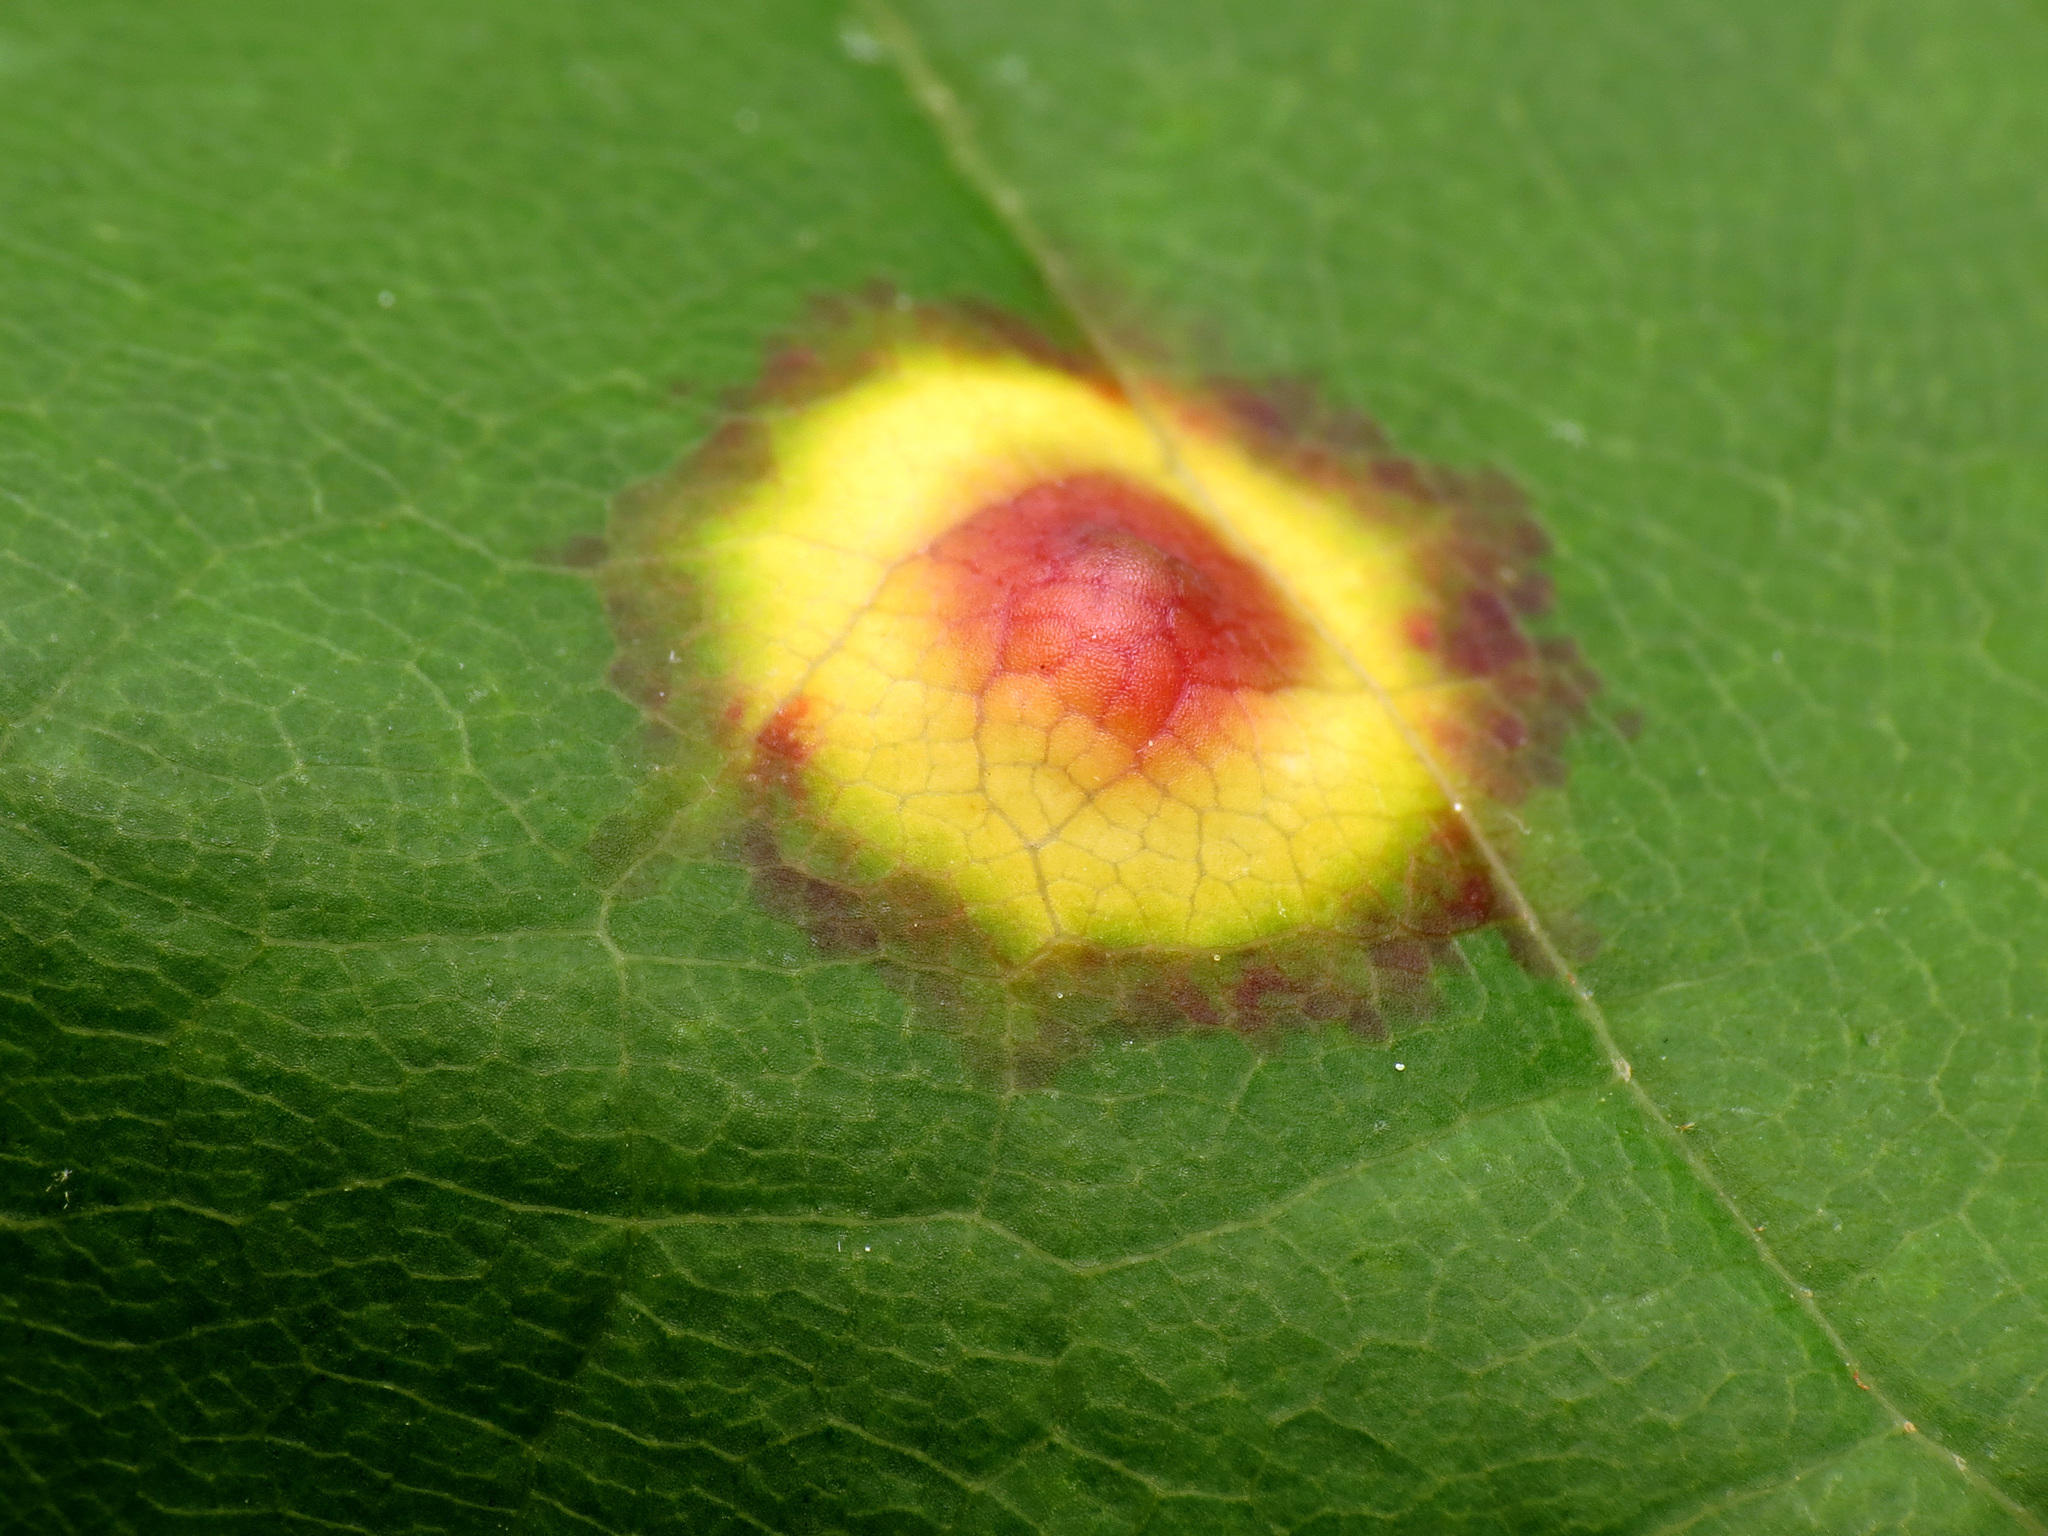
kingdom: Animalia
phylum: Arthropoda
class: Insecta
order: Diptera
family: Cecidomyiidae
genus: Acericecis
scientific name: Acericecis ocellaris
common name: Ocellate gall midge
